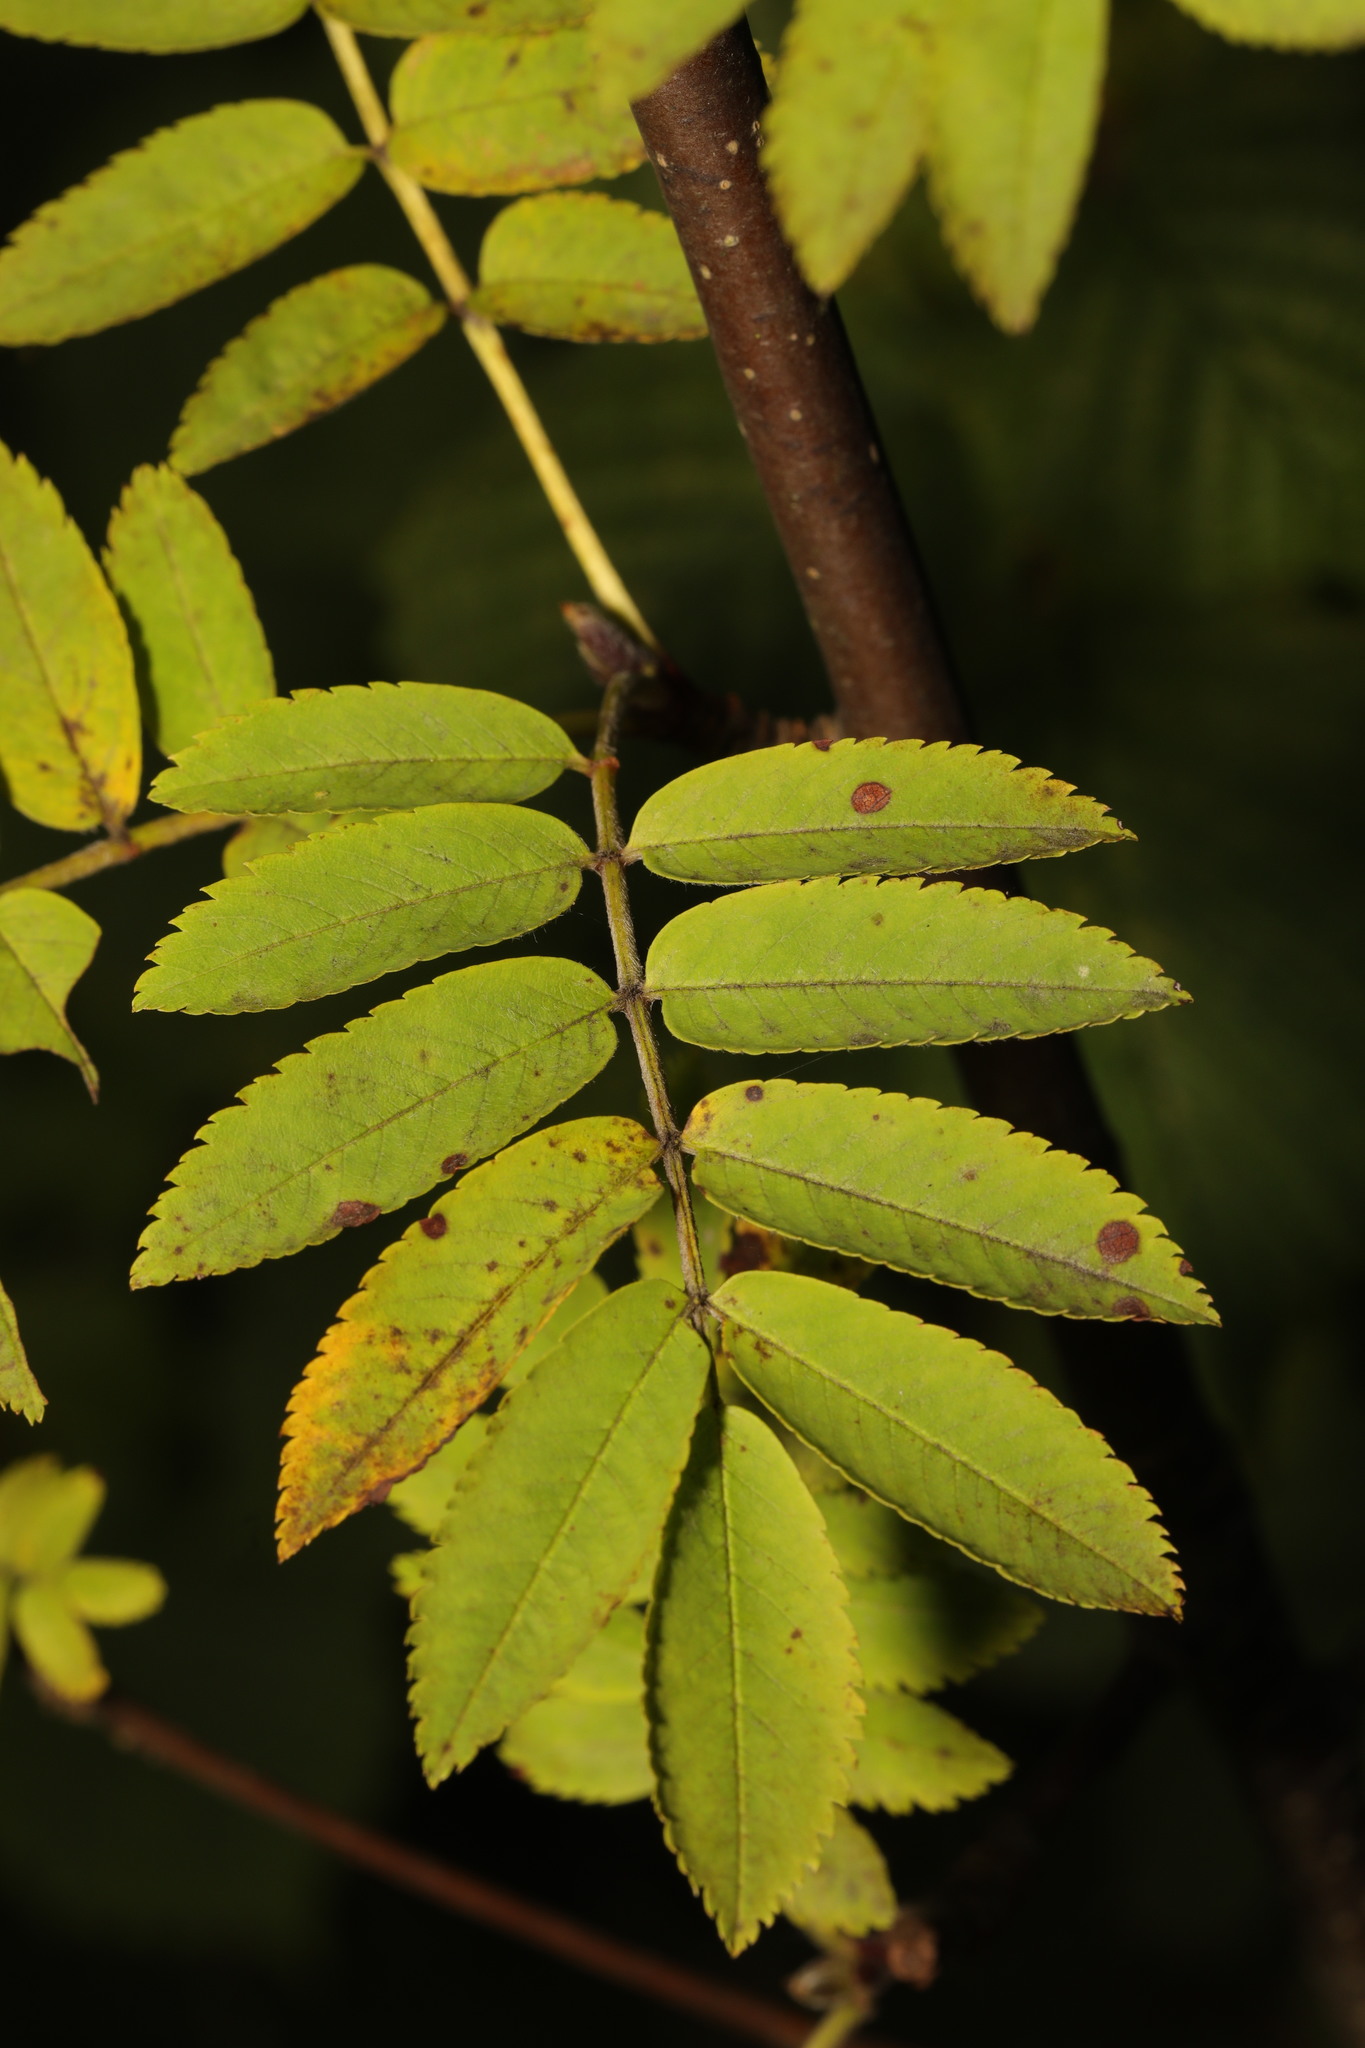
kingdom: Plantae
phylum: Tracheophyta
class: Magnoliopsida
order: Rosales
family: Rosaceae
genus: Sorbus
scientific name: Sorbus aucuparia
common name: Rowan
